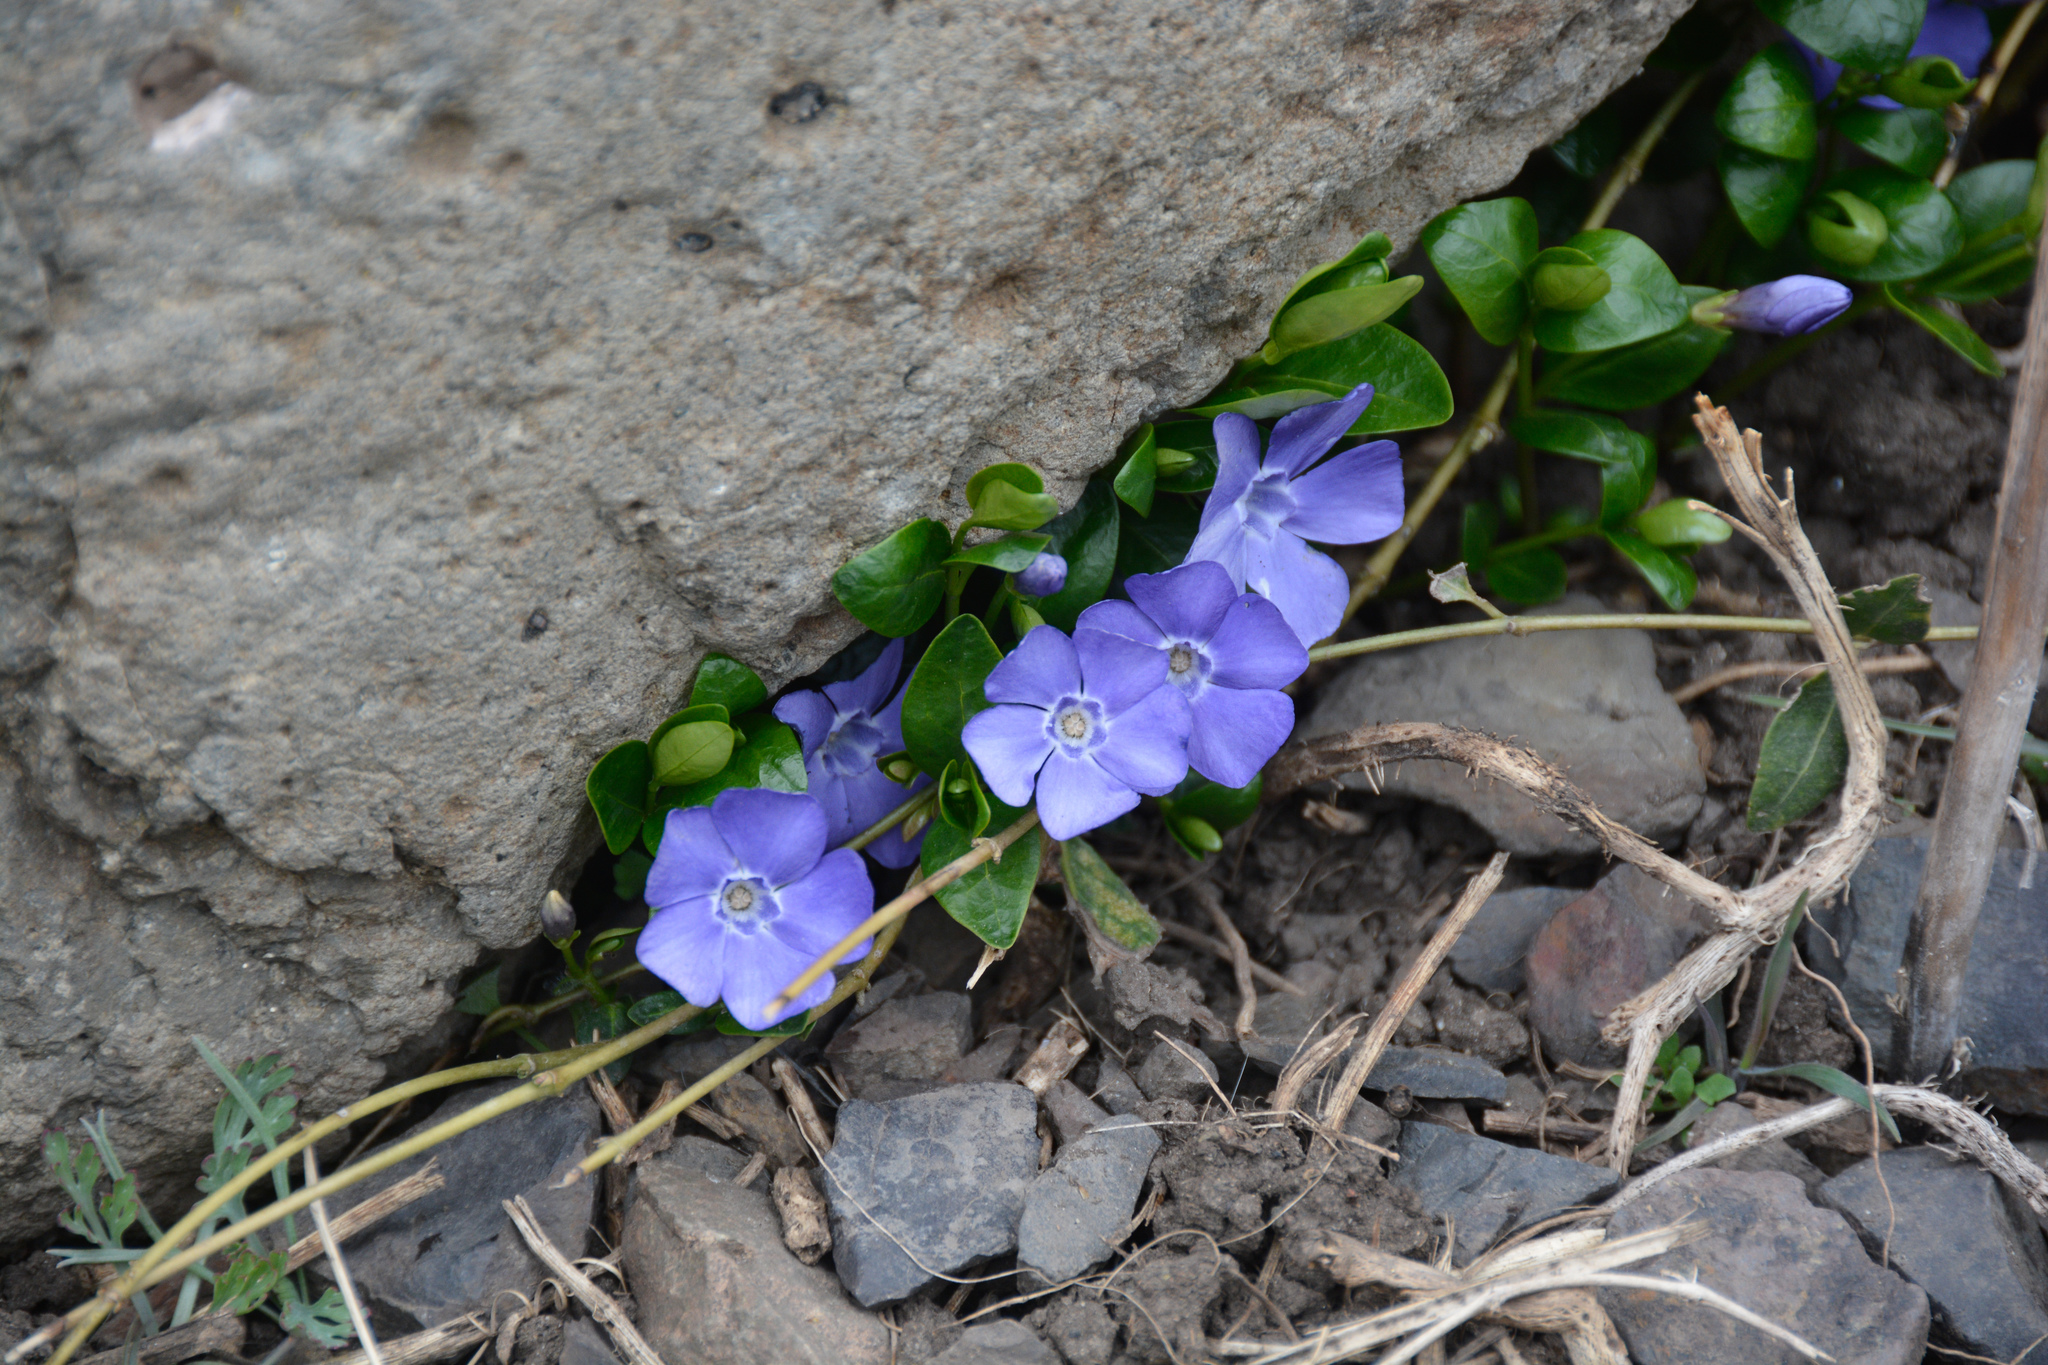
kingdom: Plantae
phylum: Tracheophyta
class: Magnoliopsida
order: Gentianales
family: Apocynaceae
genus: Vinca
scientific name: Vinca minor
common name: Lesser periwinkle
